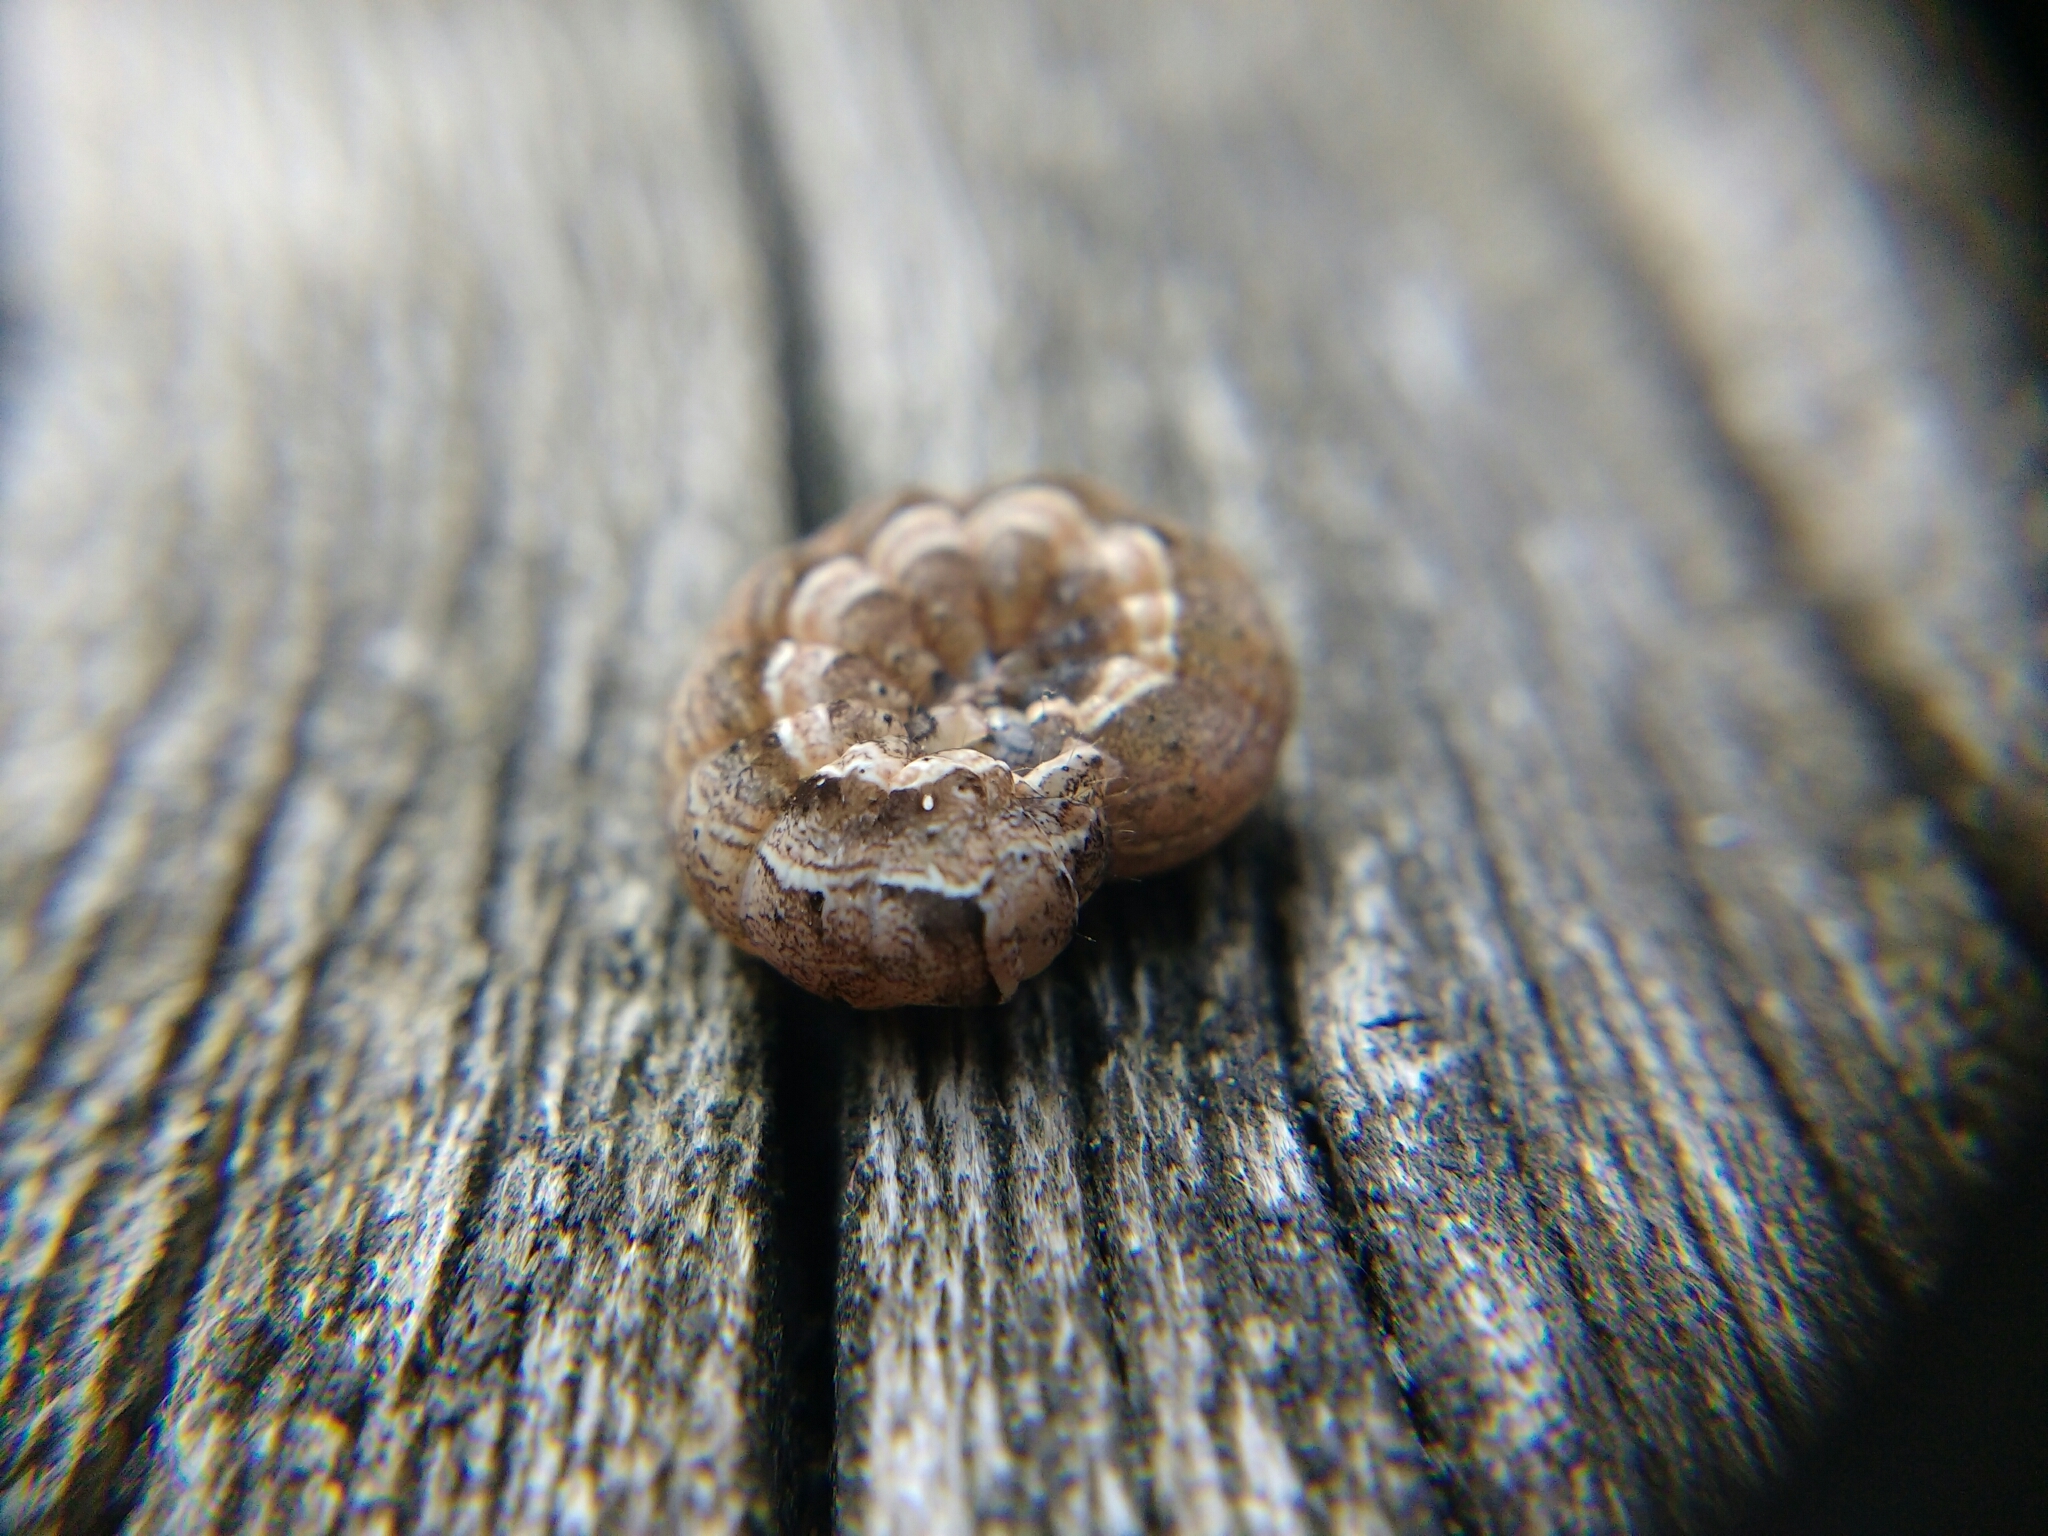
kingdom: Animalia
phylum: Arthropoda
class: Insecta
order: Lepidoptera
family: Noctuidae
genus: Noctua
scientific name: Noctua comes
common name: Lesser yellow underwing
